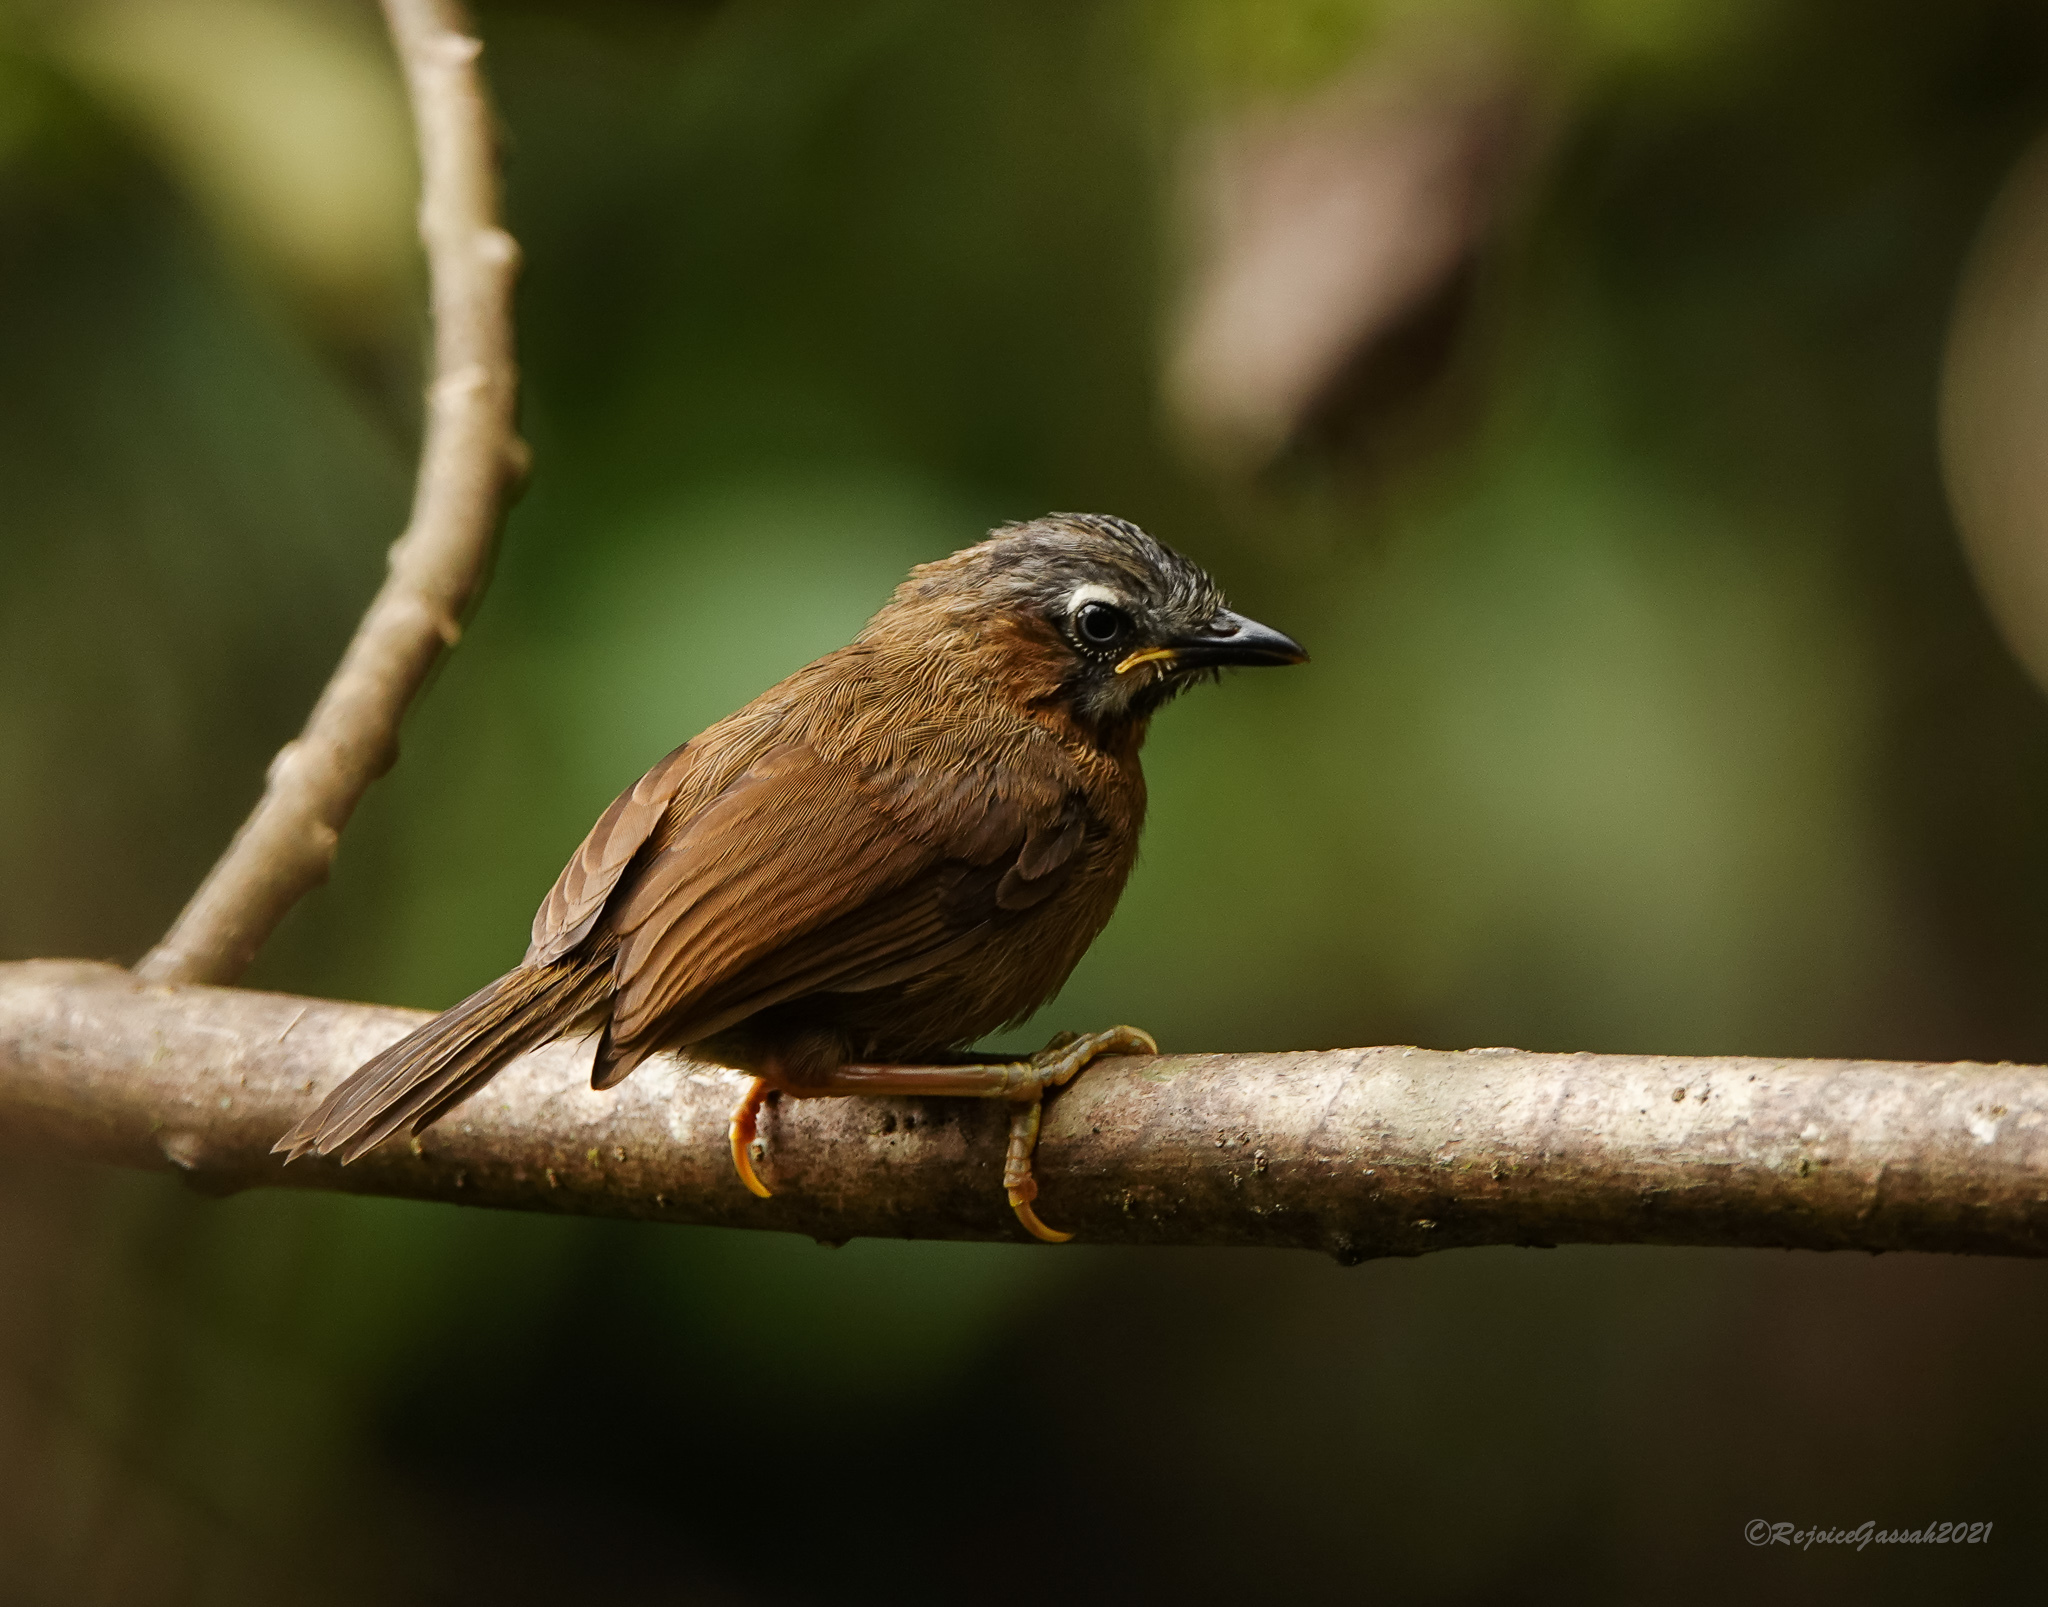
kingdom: Animalia
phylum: Chordata
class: Aves
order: Passeriformes
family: Timaliidae
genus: Stachyris
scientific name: Stachyris nigriceps
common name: Grey-throated babbler
